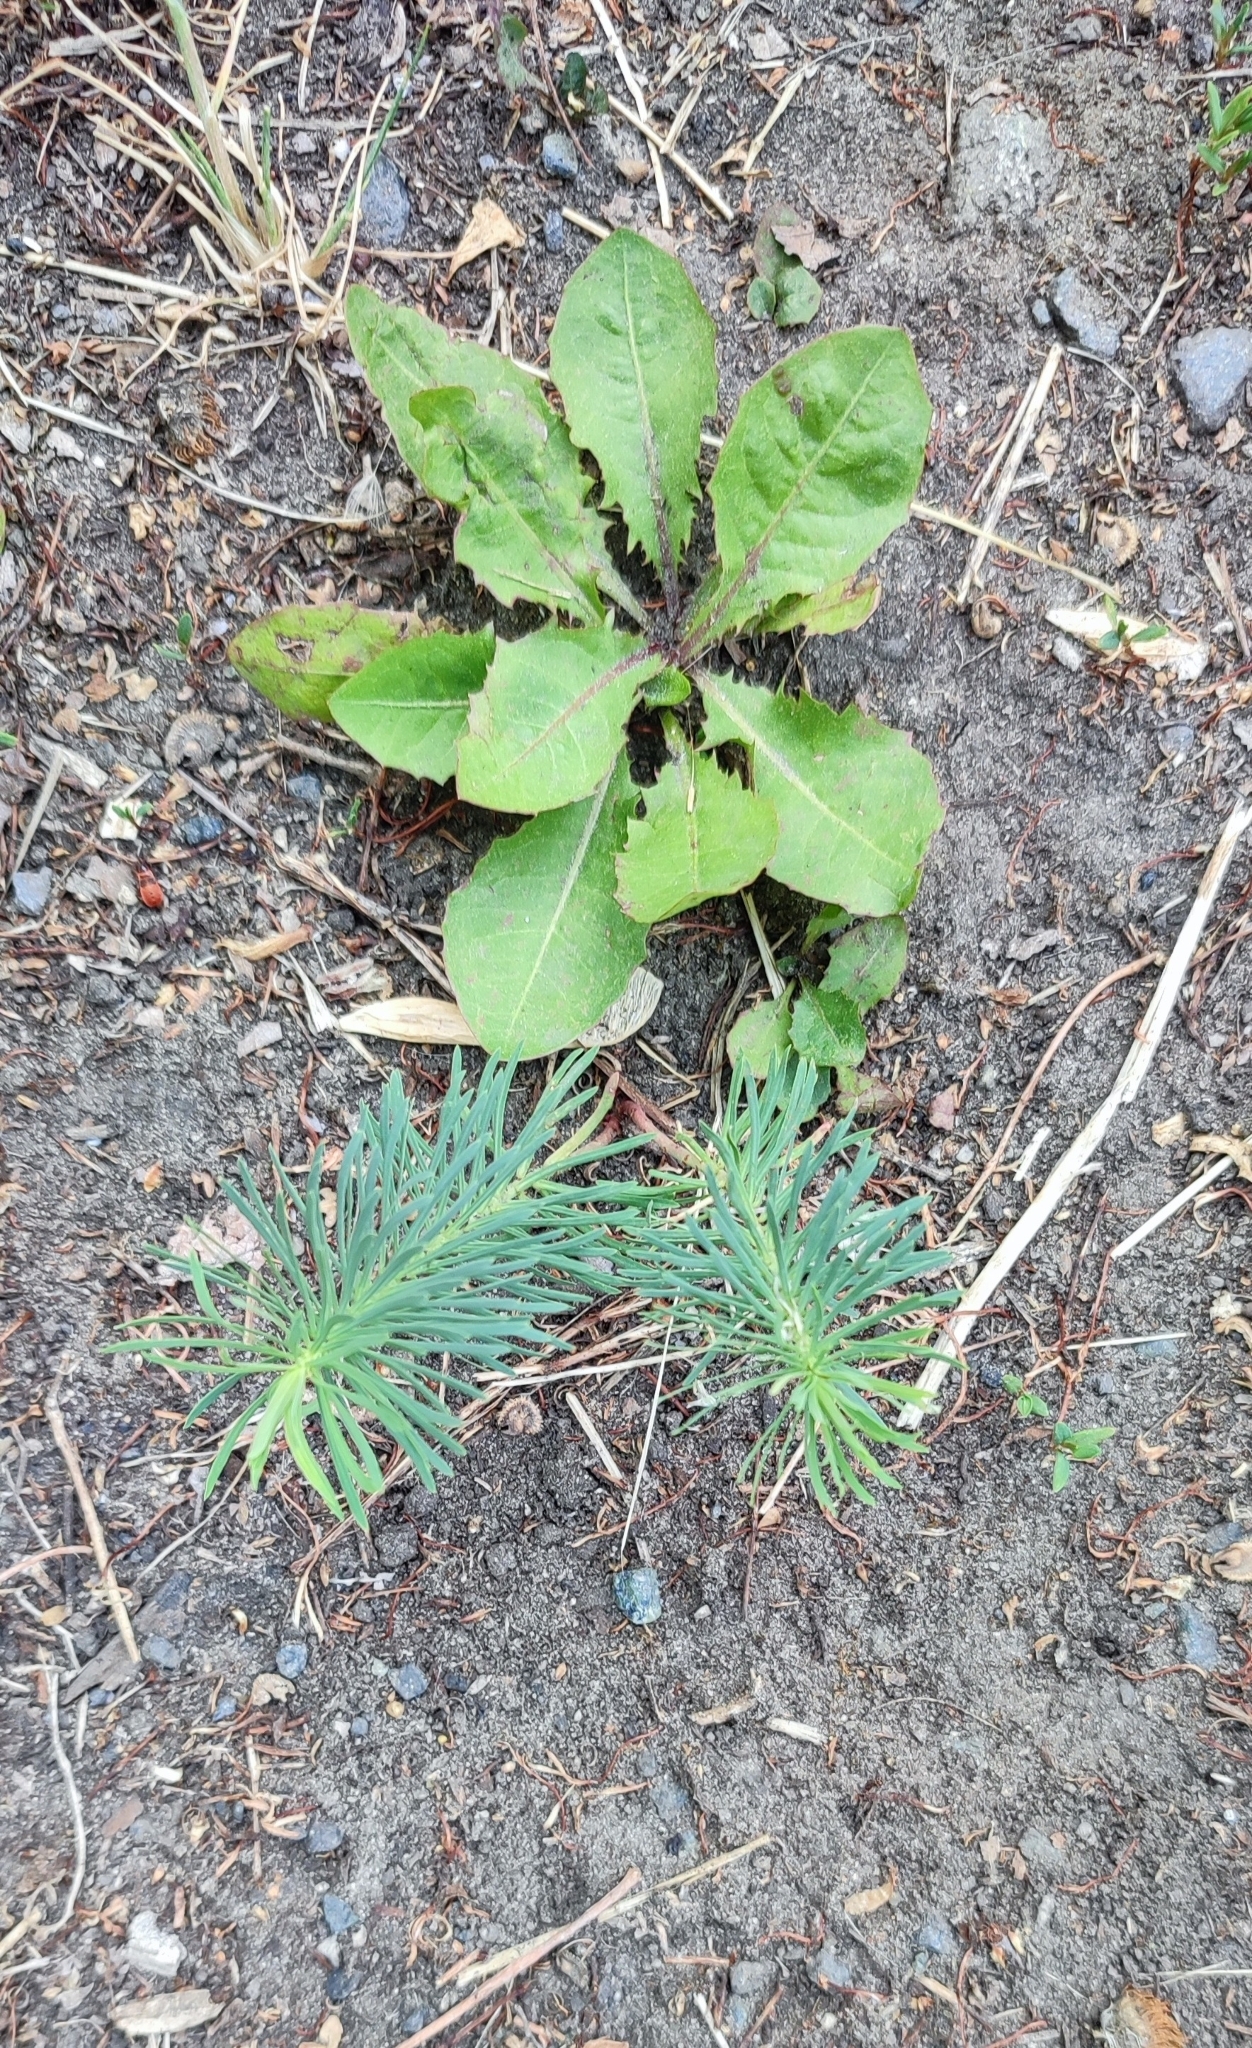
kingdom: Plantae
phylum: Tracheophyta
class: Magnoliopsida
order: Malpighiales
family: Euphorbiaceae
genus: Euphorbia
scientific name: Euphorbia cyparissias
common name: Cypress spurge
